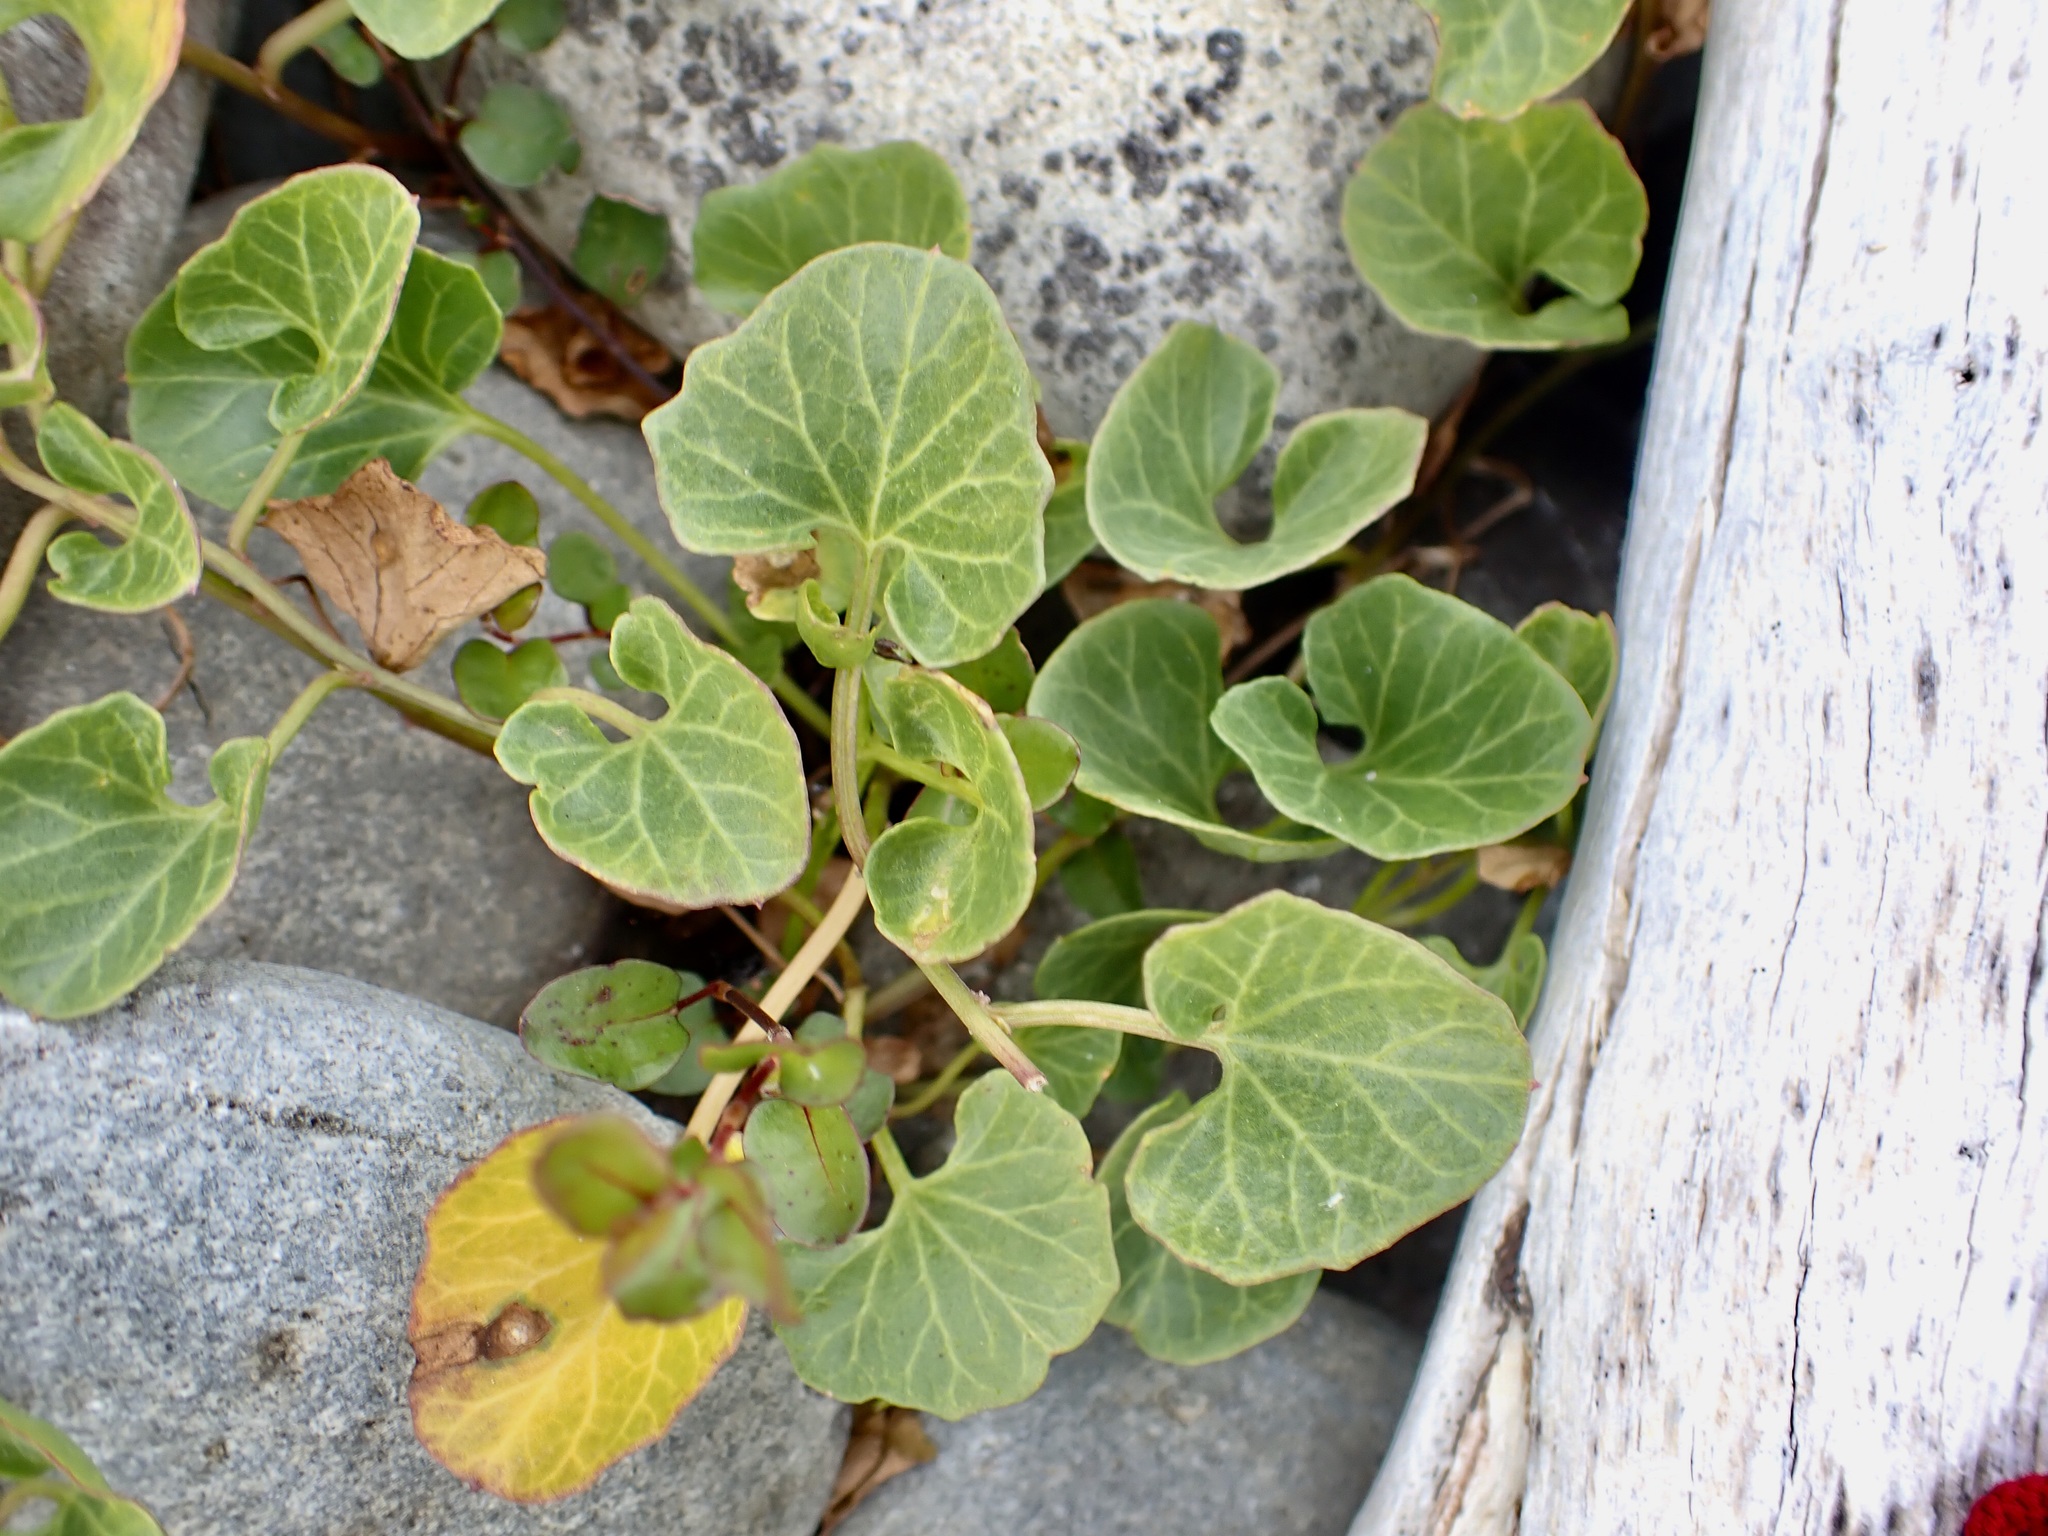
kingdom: Plantae
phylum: Tracheophyta
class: Magnoliopsida
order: Solanales
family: Convolvulaceae
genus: Calystegia
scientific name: Calystegia soldanella
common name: Sea bindweed
